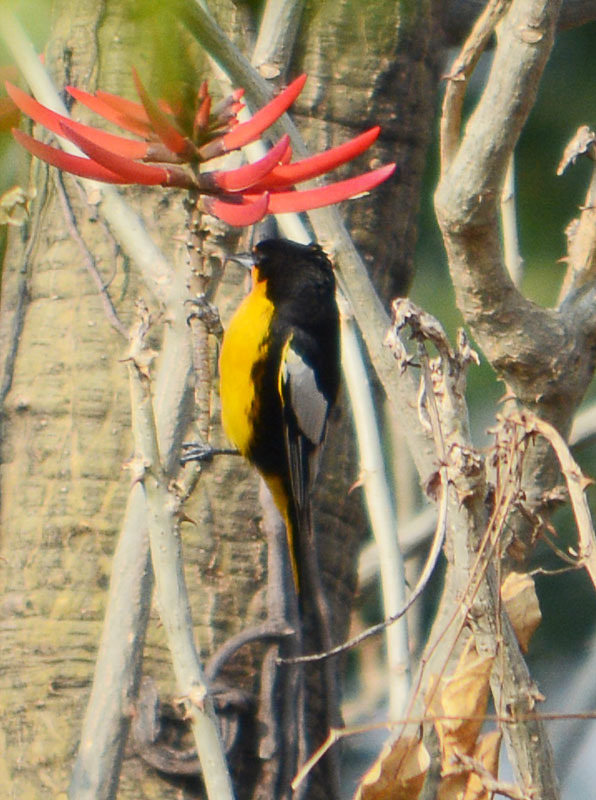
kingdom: Animalia
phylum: Chordata
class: Aves
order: Passeriformes
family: Icteridae
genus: Icterus
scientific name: Icterus abeillei
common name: Black-backed oriole
